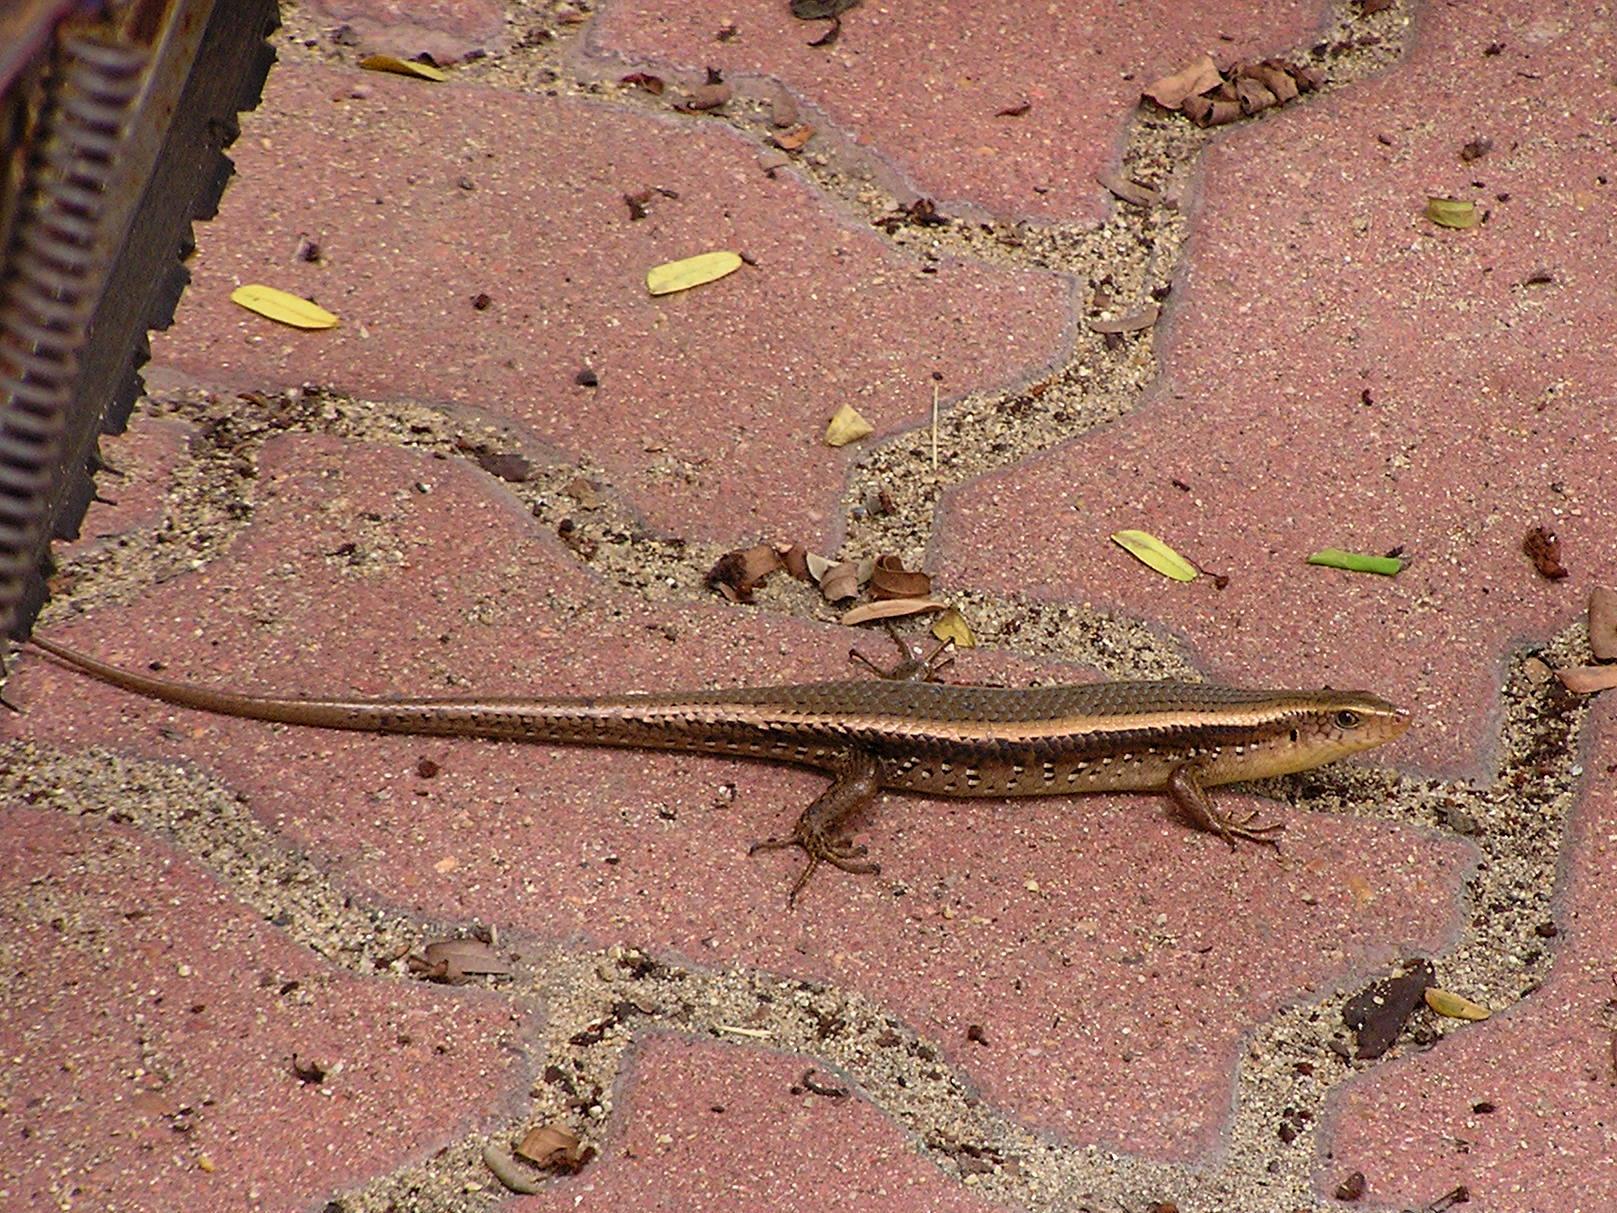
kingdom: Animalia
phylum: Chordata
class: Squamata
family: Scincidae
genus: Eutropis
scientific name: Eutropis multifasciata
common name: Common mabuya
